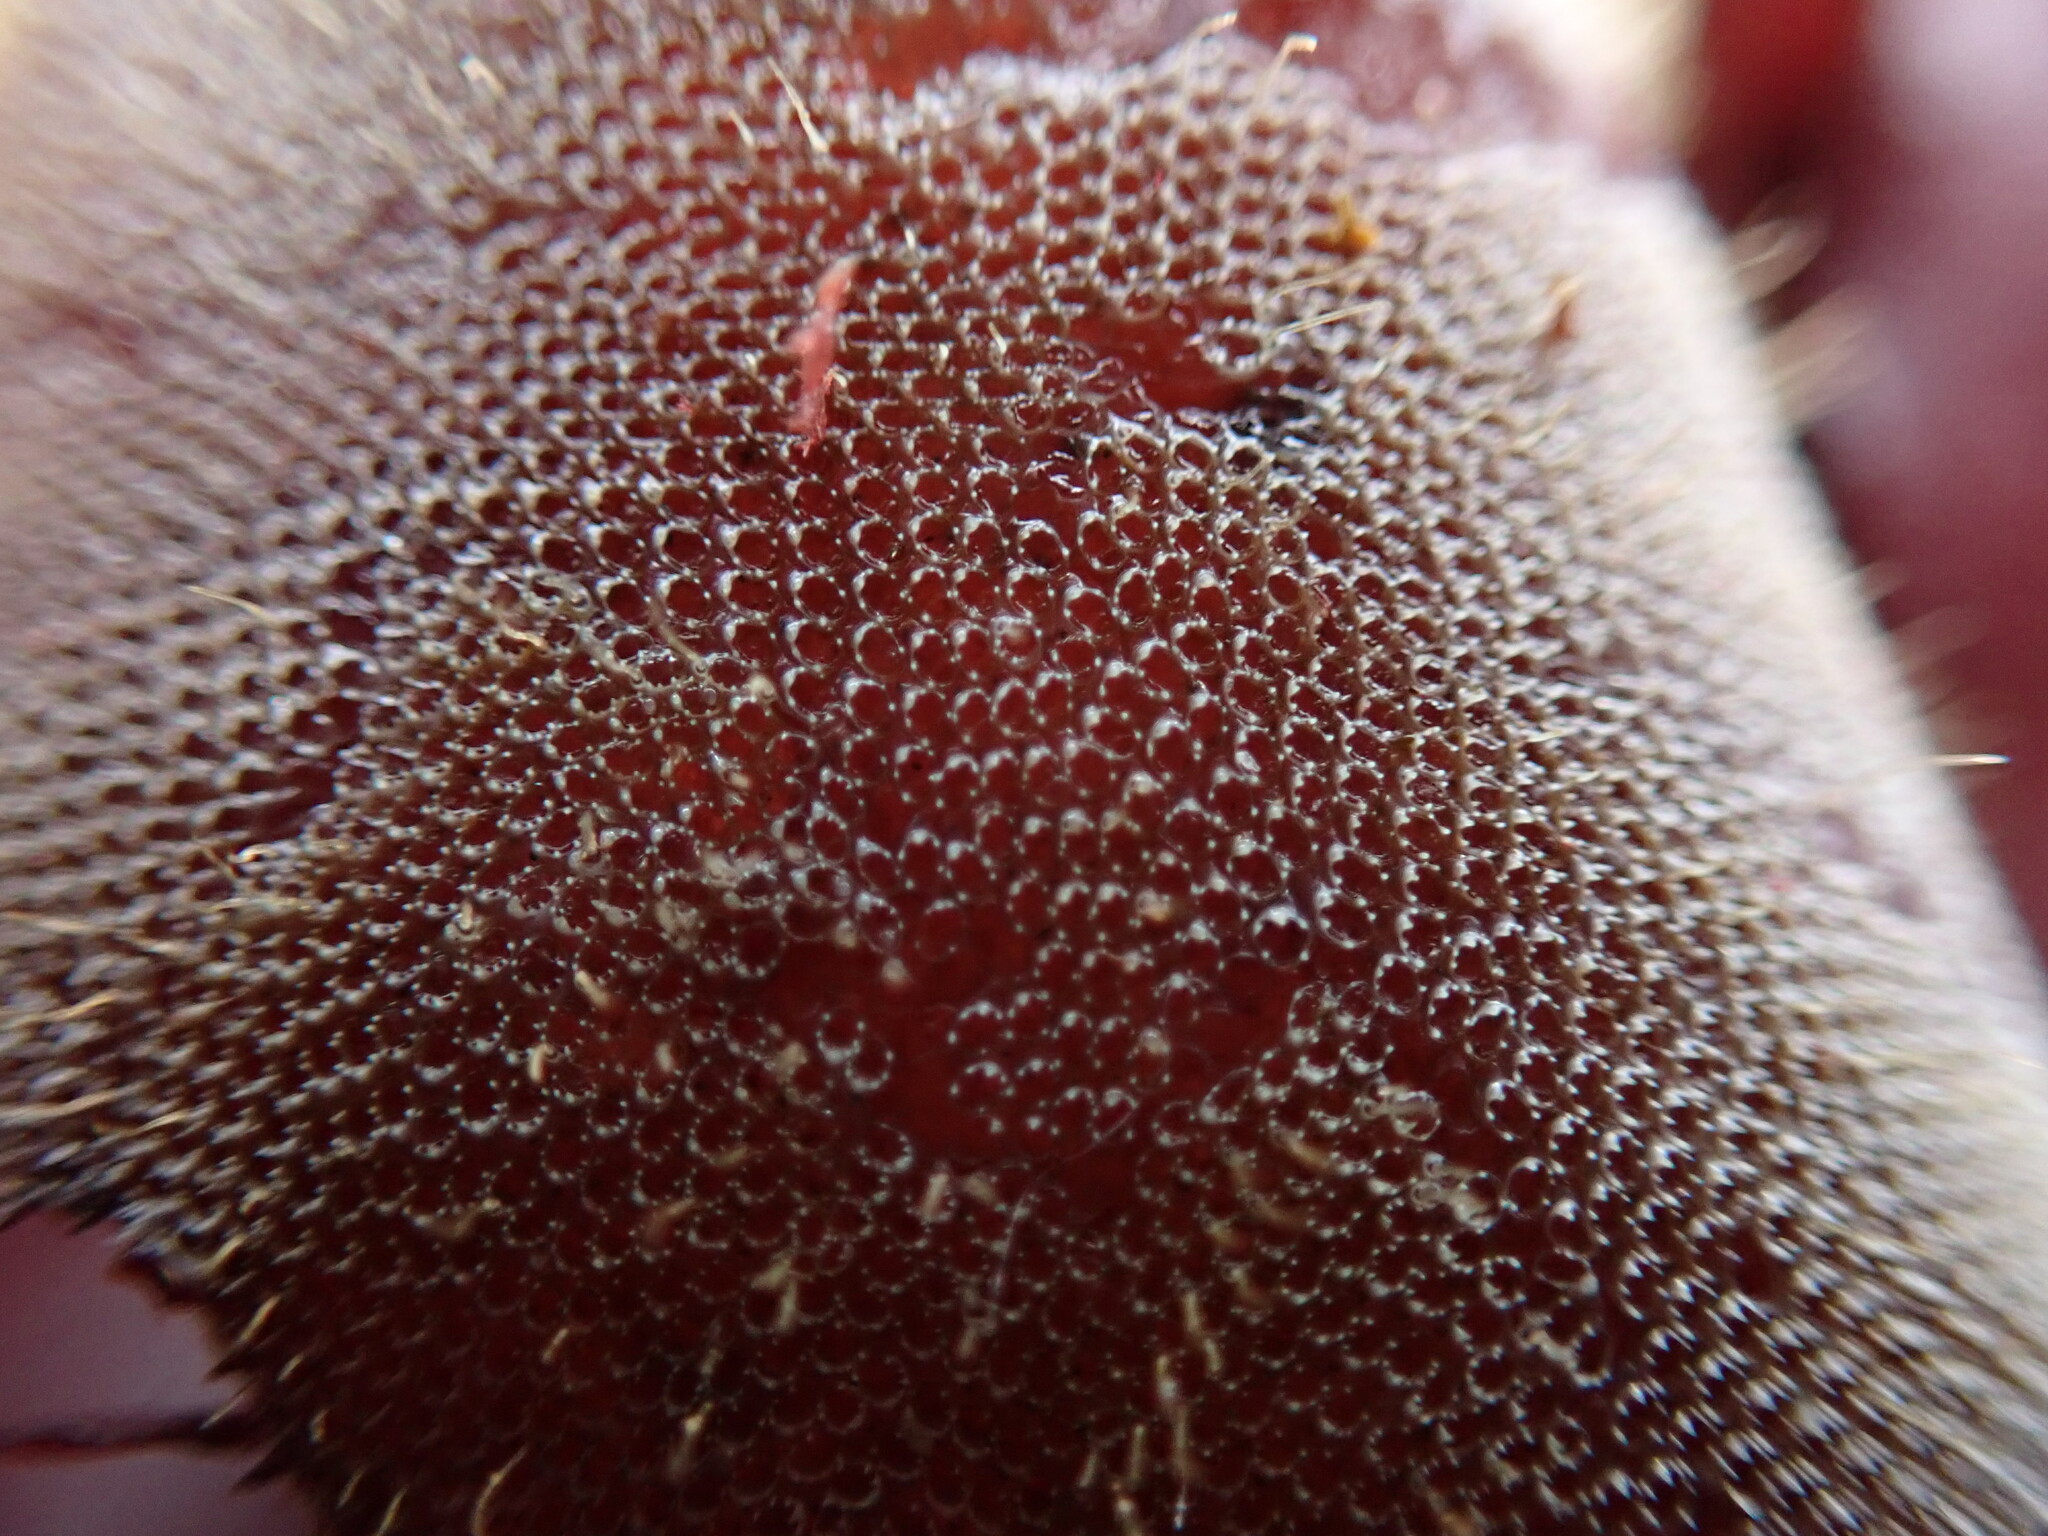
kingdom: Animalia
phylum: Bryozoa
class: Gymnolaemata
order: Cheilostomatida
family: Electridae
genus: Electra
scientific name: Electra pilosa
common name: Hairy sea-mat
